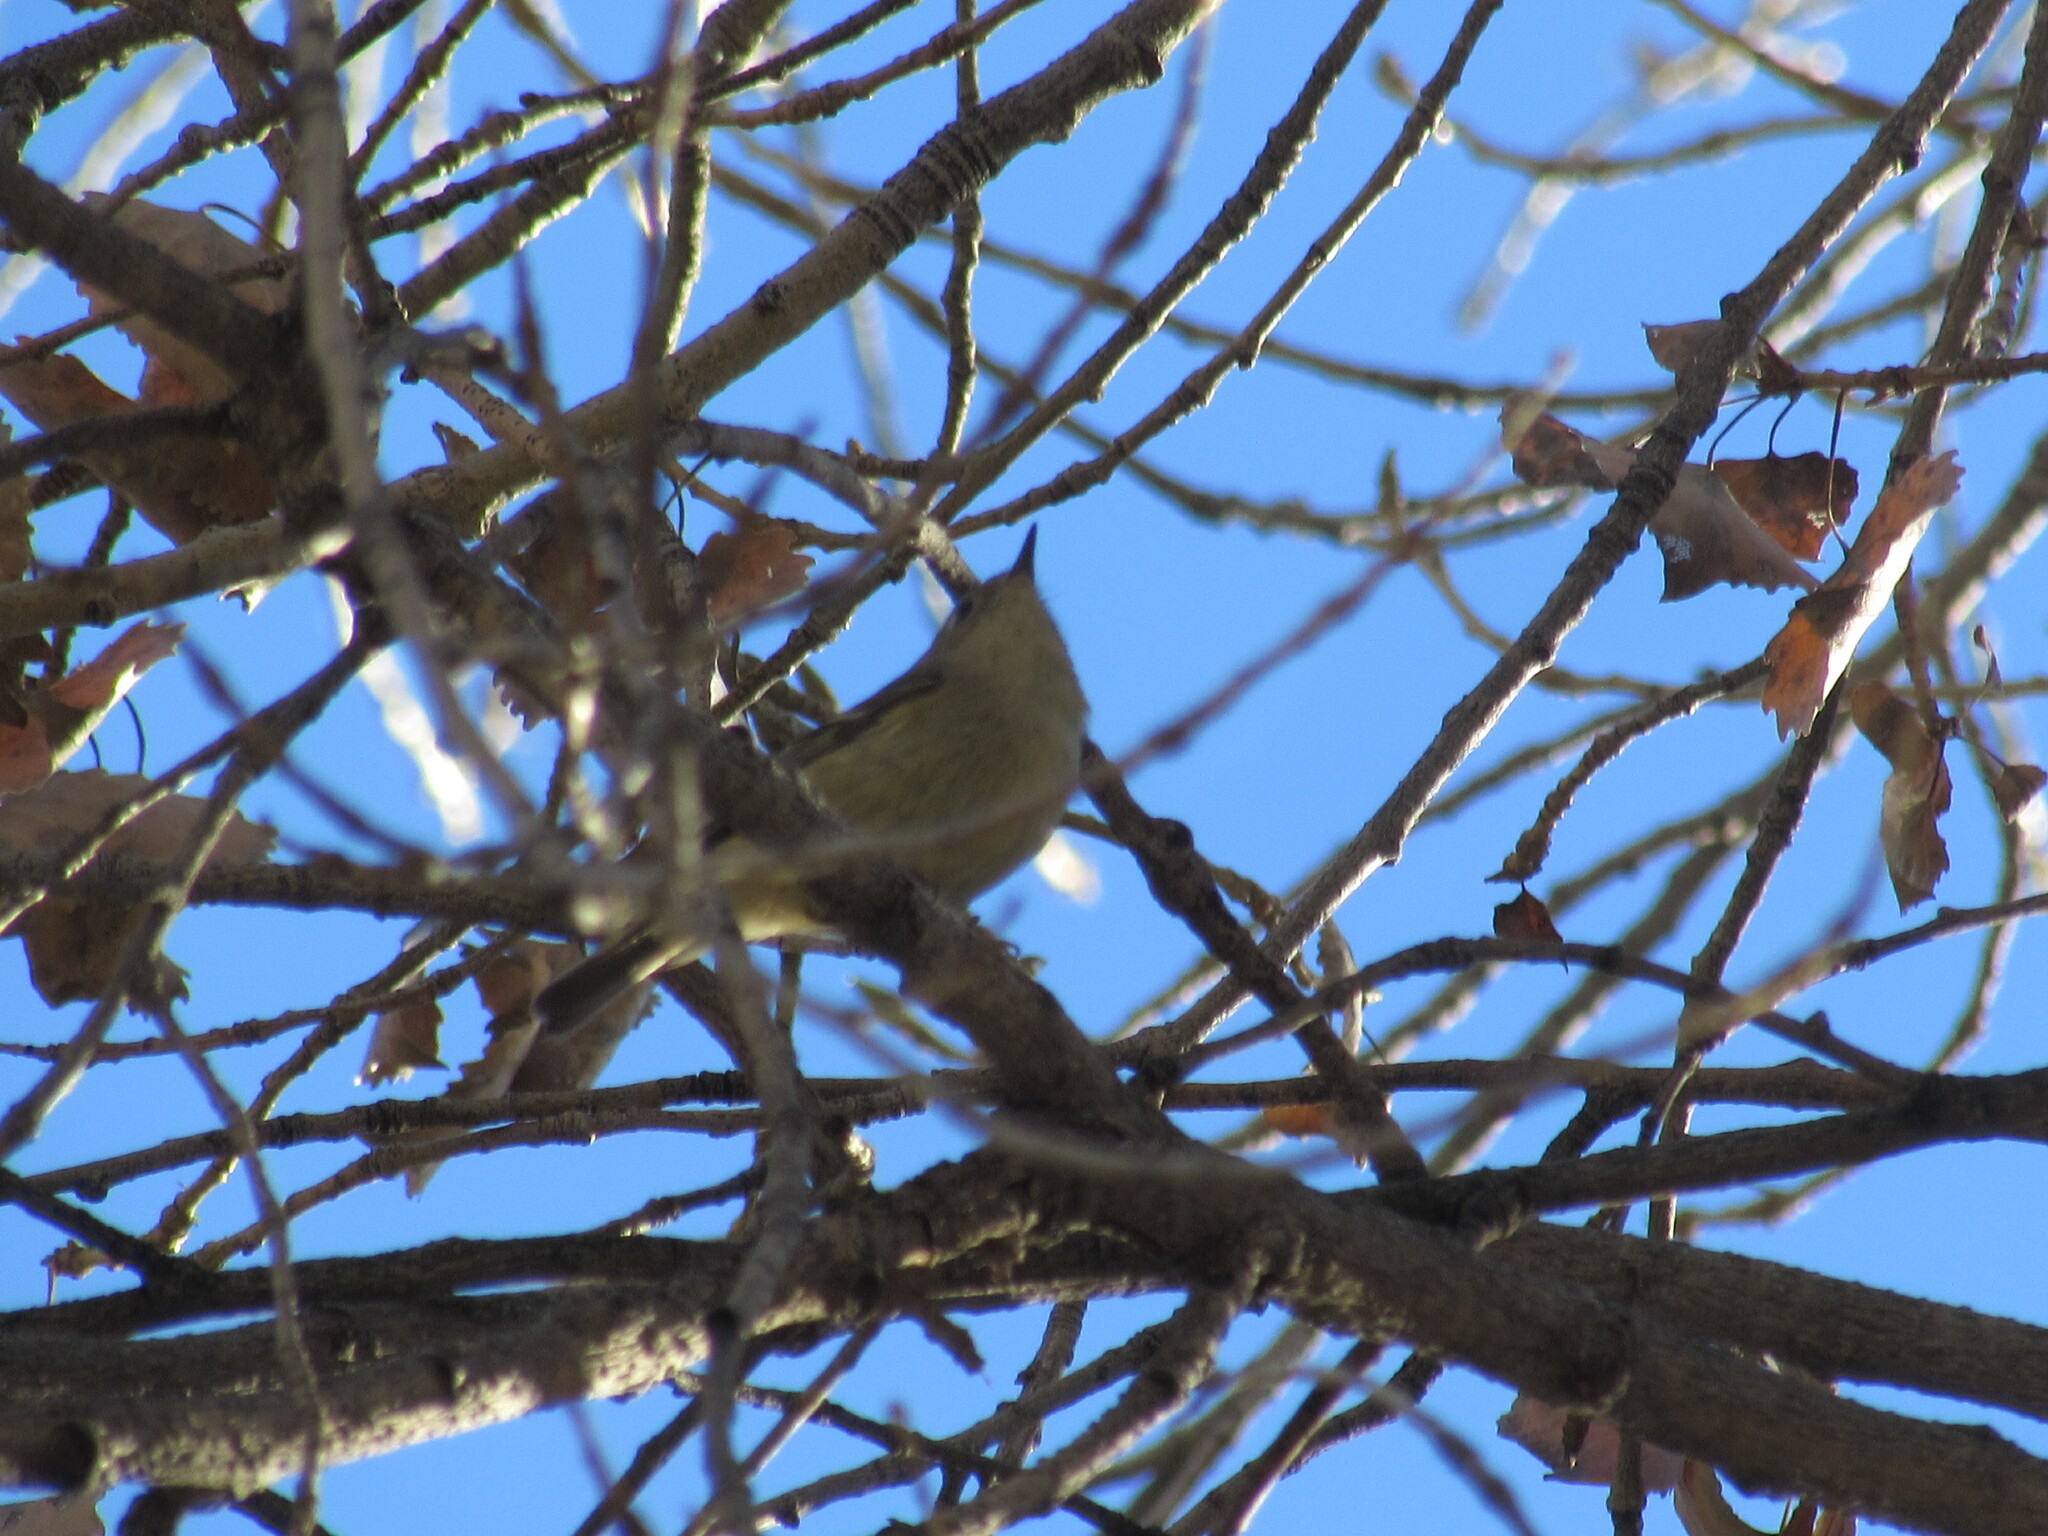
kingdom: Animalia
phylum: Chordata
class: Aves
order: Passeriformes
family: Regulidae
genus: Regulus
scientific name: Regulus calendula
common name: Ruby-crowned kinglet
